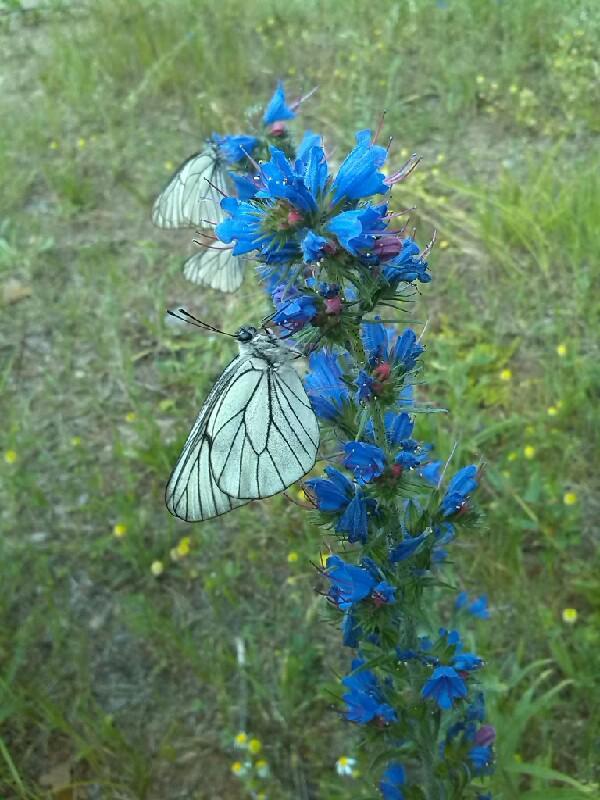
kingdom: Animalia
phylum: Arthropoda
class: Insecta
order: Lepidoptera
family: Pieridae
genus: Aporia
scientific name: Aporia crataegi
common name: Black-veined white
